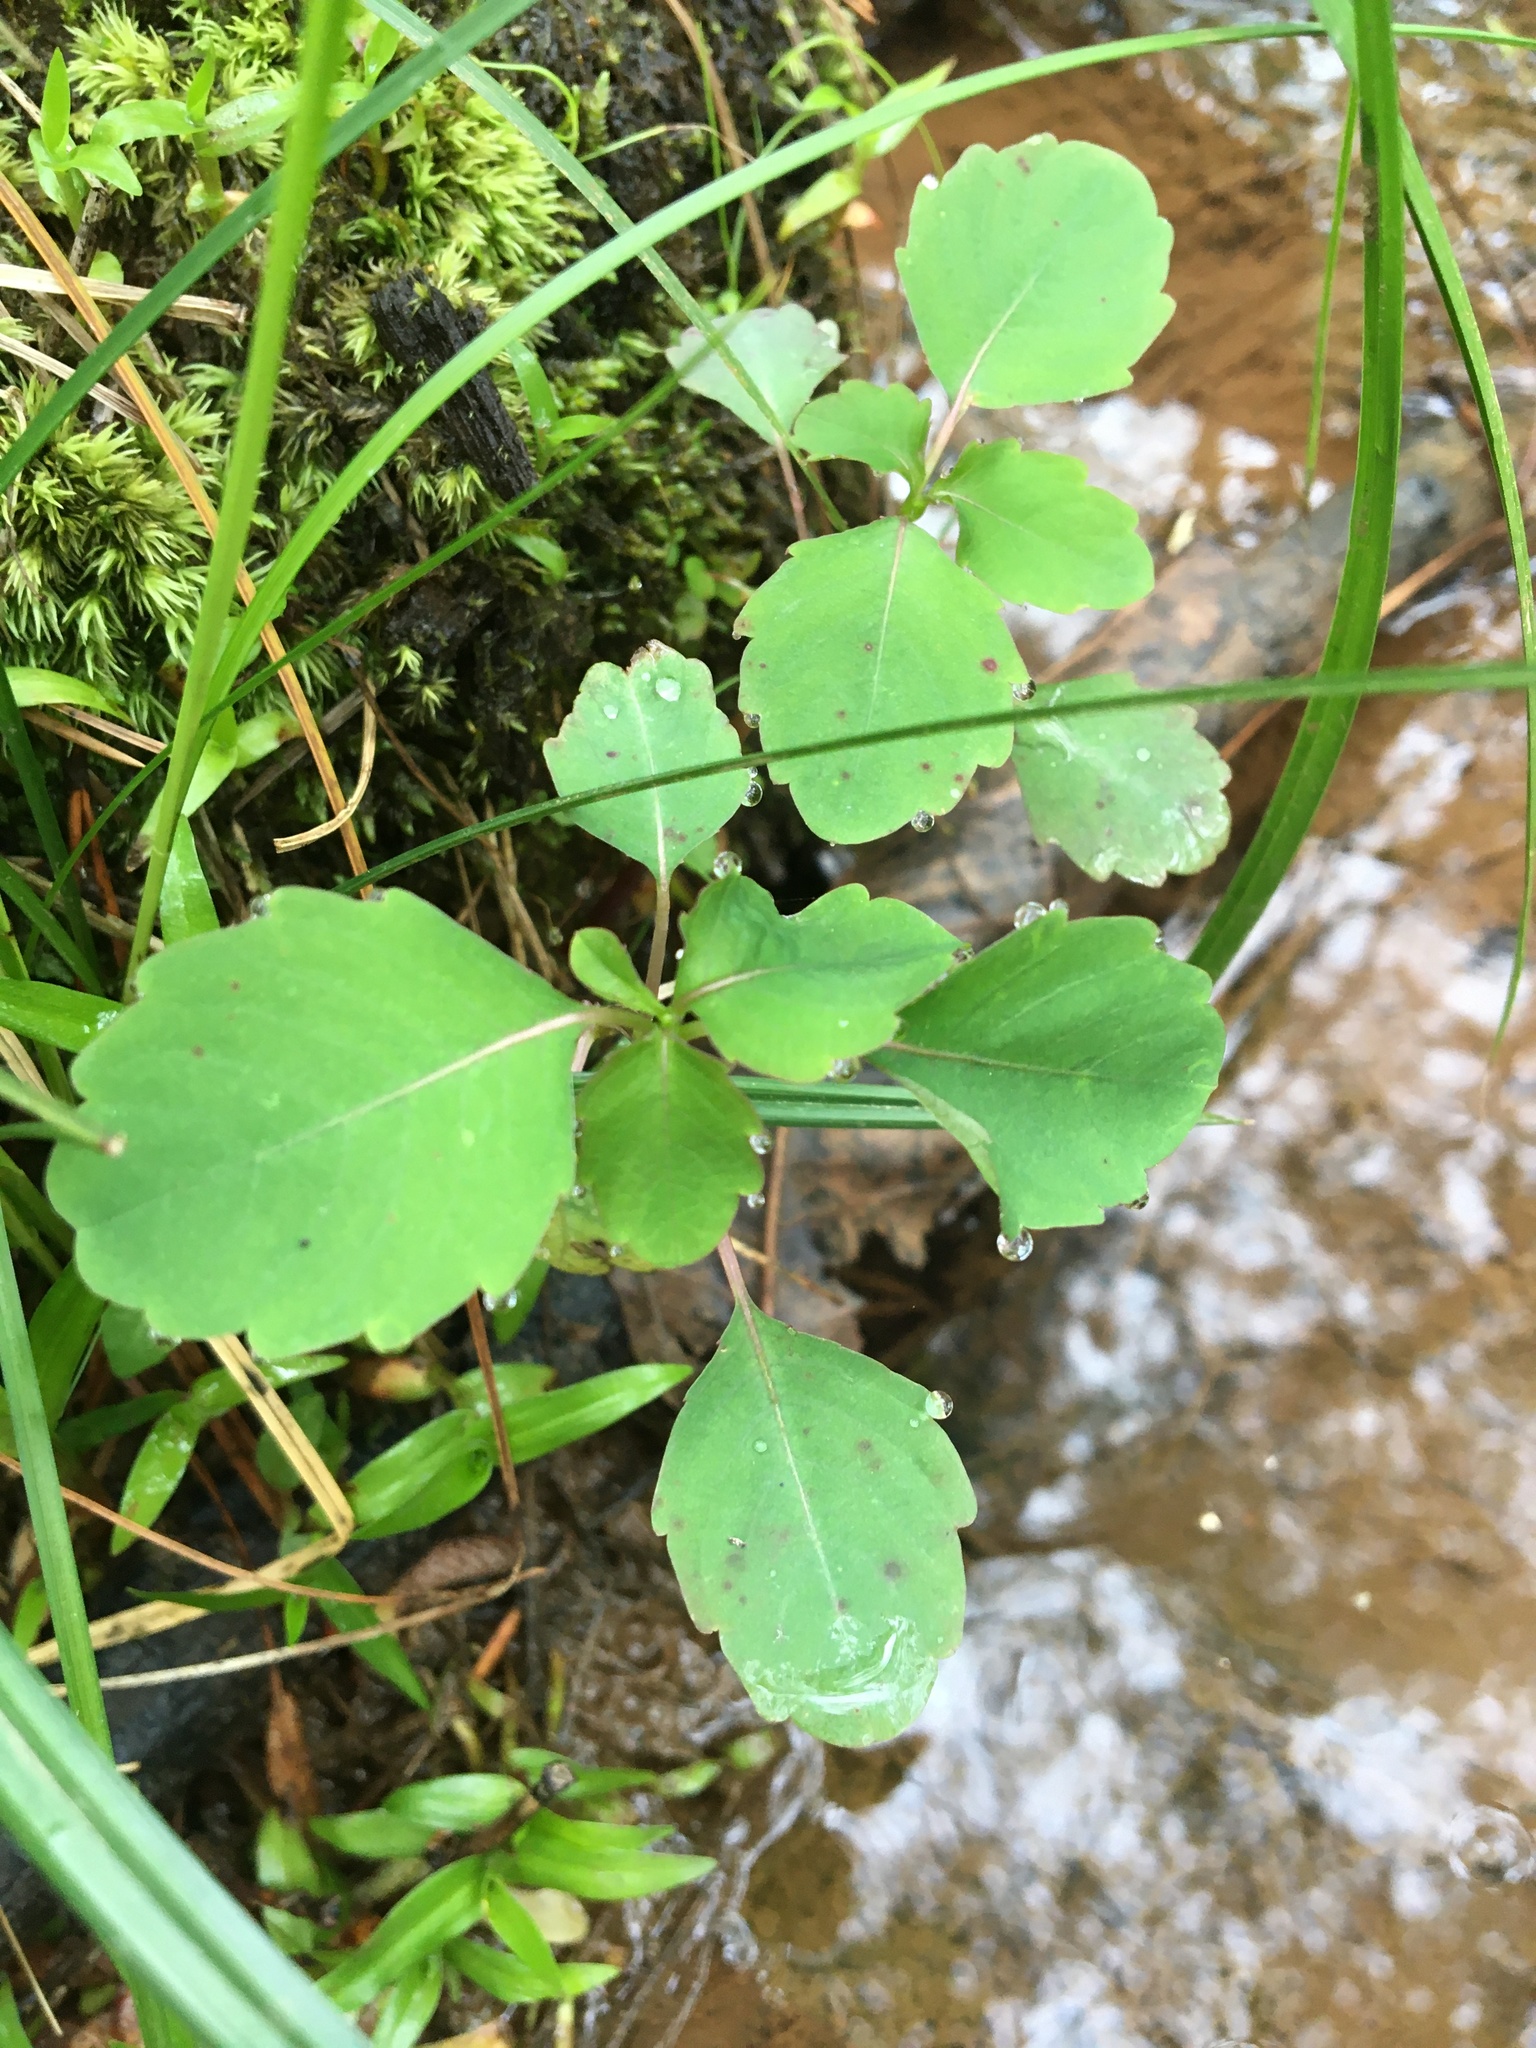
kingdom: Plantae
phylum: Tracheophyta
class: Magnoliopsida
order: Ericales
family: Balsaminaceae
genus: Impatiens
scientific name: Impatiens capensis
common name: Orange balsam
